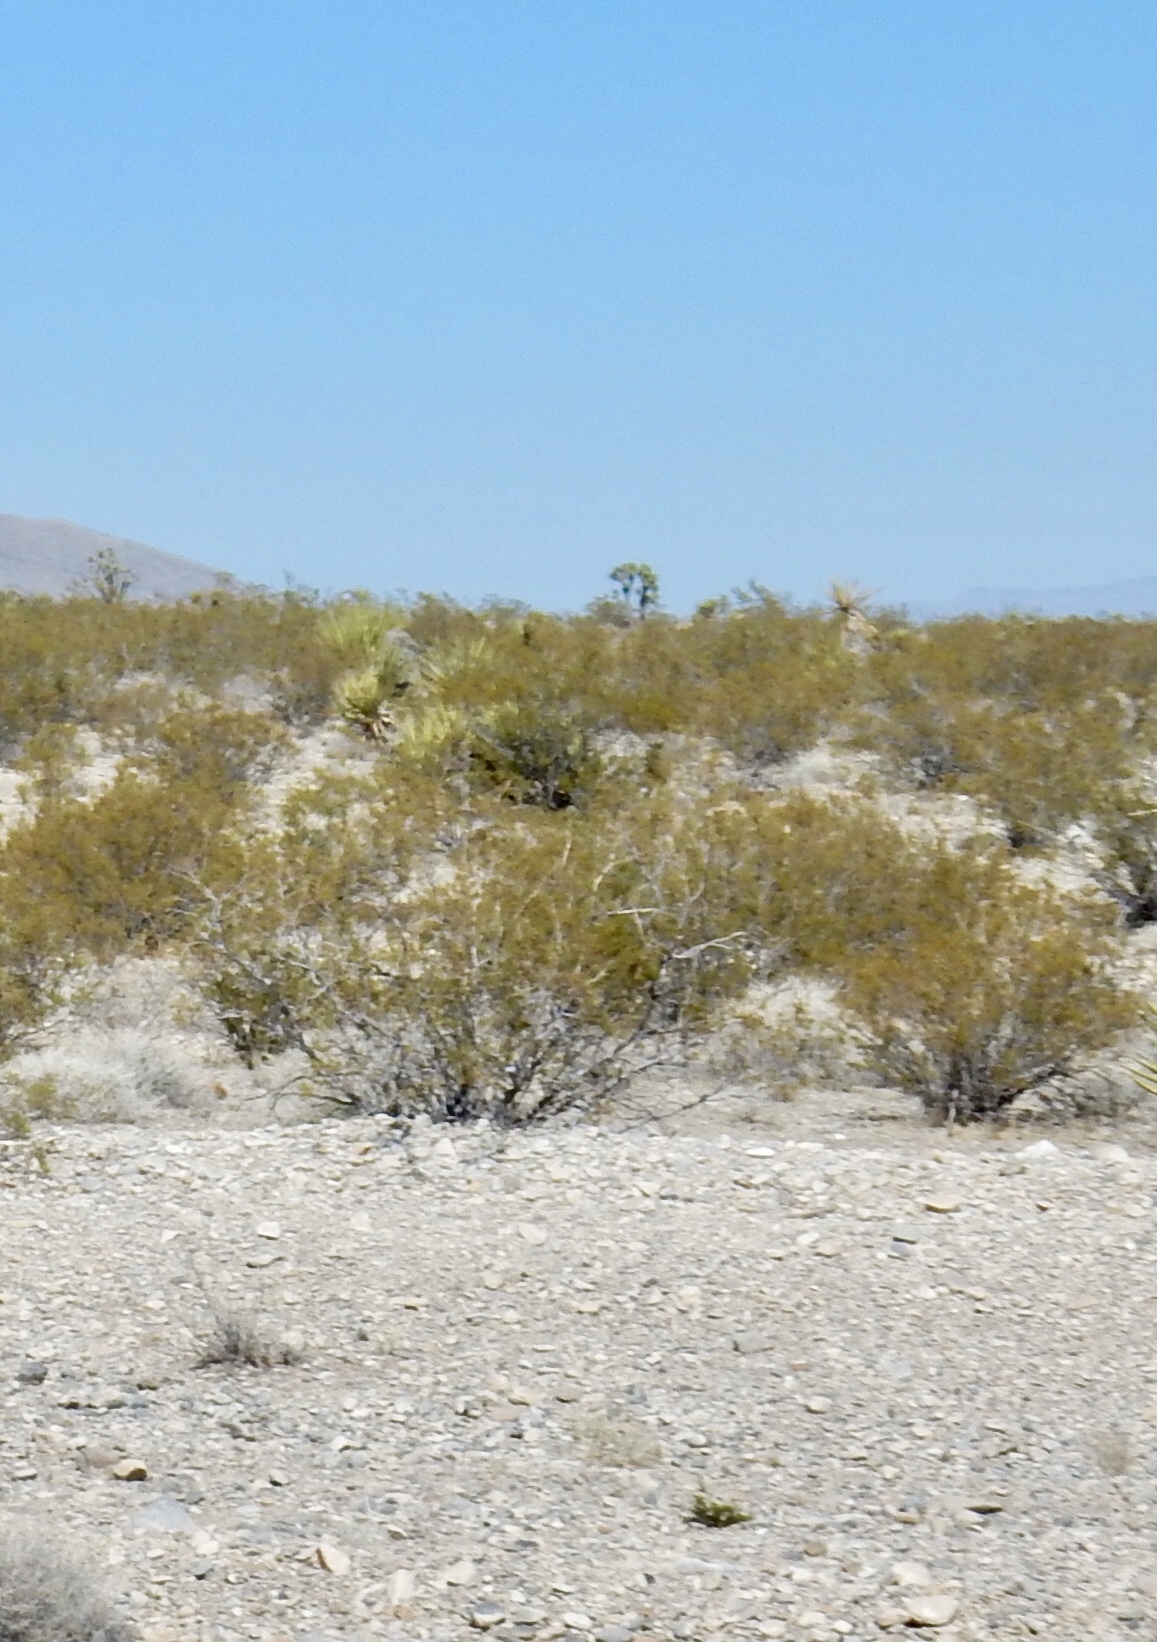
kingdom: Plantae
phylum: Tracheophyta
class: Magnoliopsida
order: Zygophyllales
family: Zygophyllaceae
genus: Larrea
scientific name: Larrea tridentata
